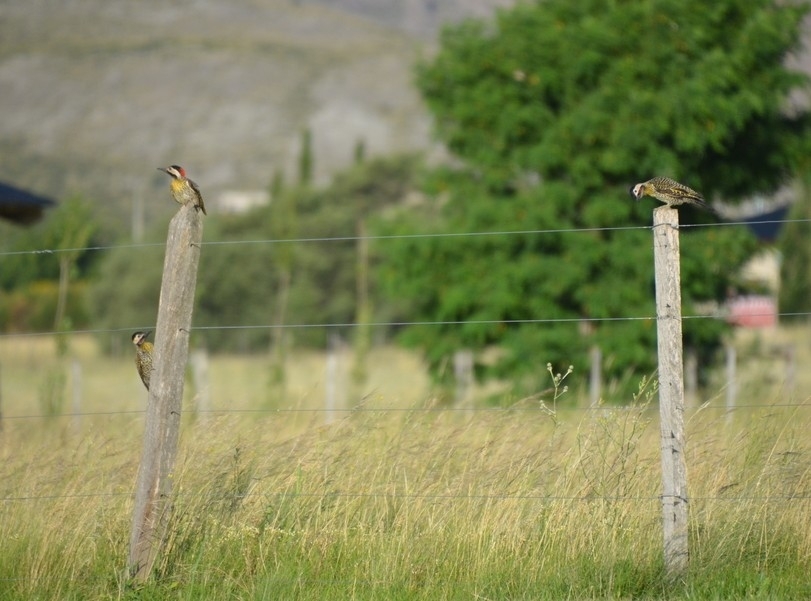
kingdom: Animalia
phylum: Chordata
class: Aves
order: Piciformes
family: Picidae
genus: Colaptes
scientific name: Colaptes melanochloros
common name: Green-barred woodpecker
